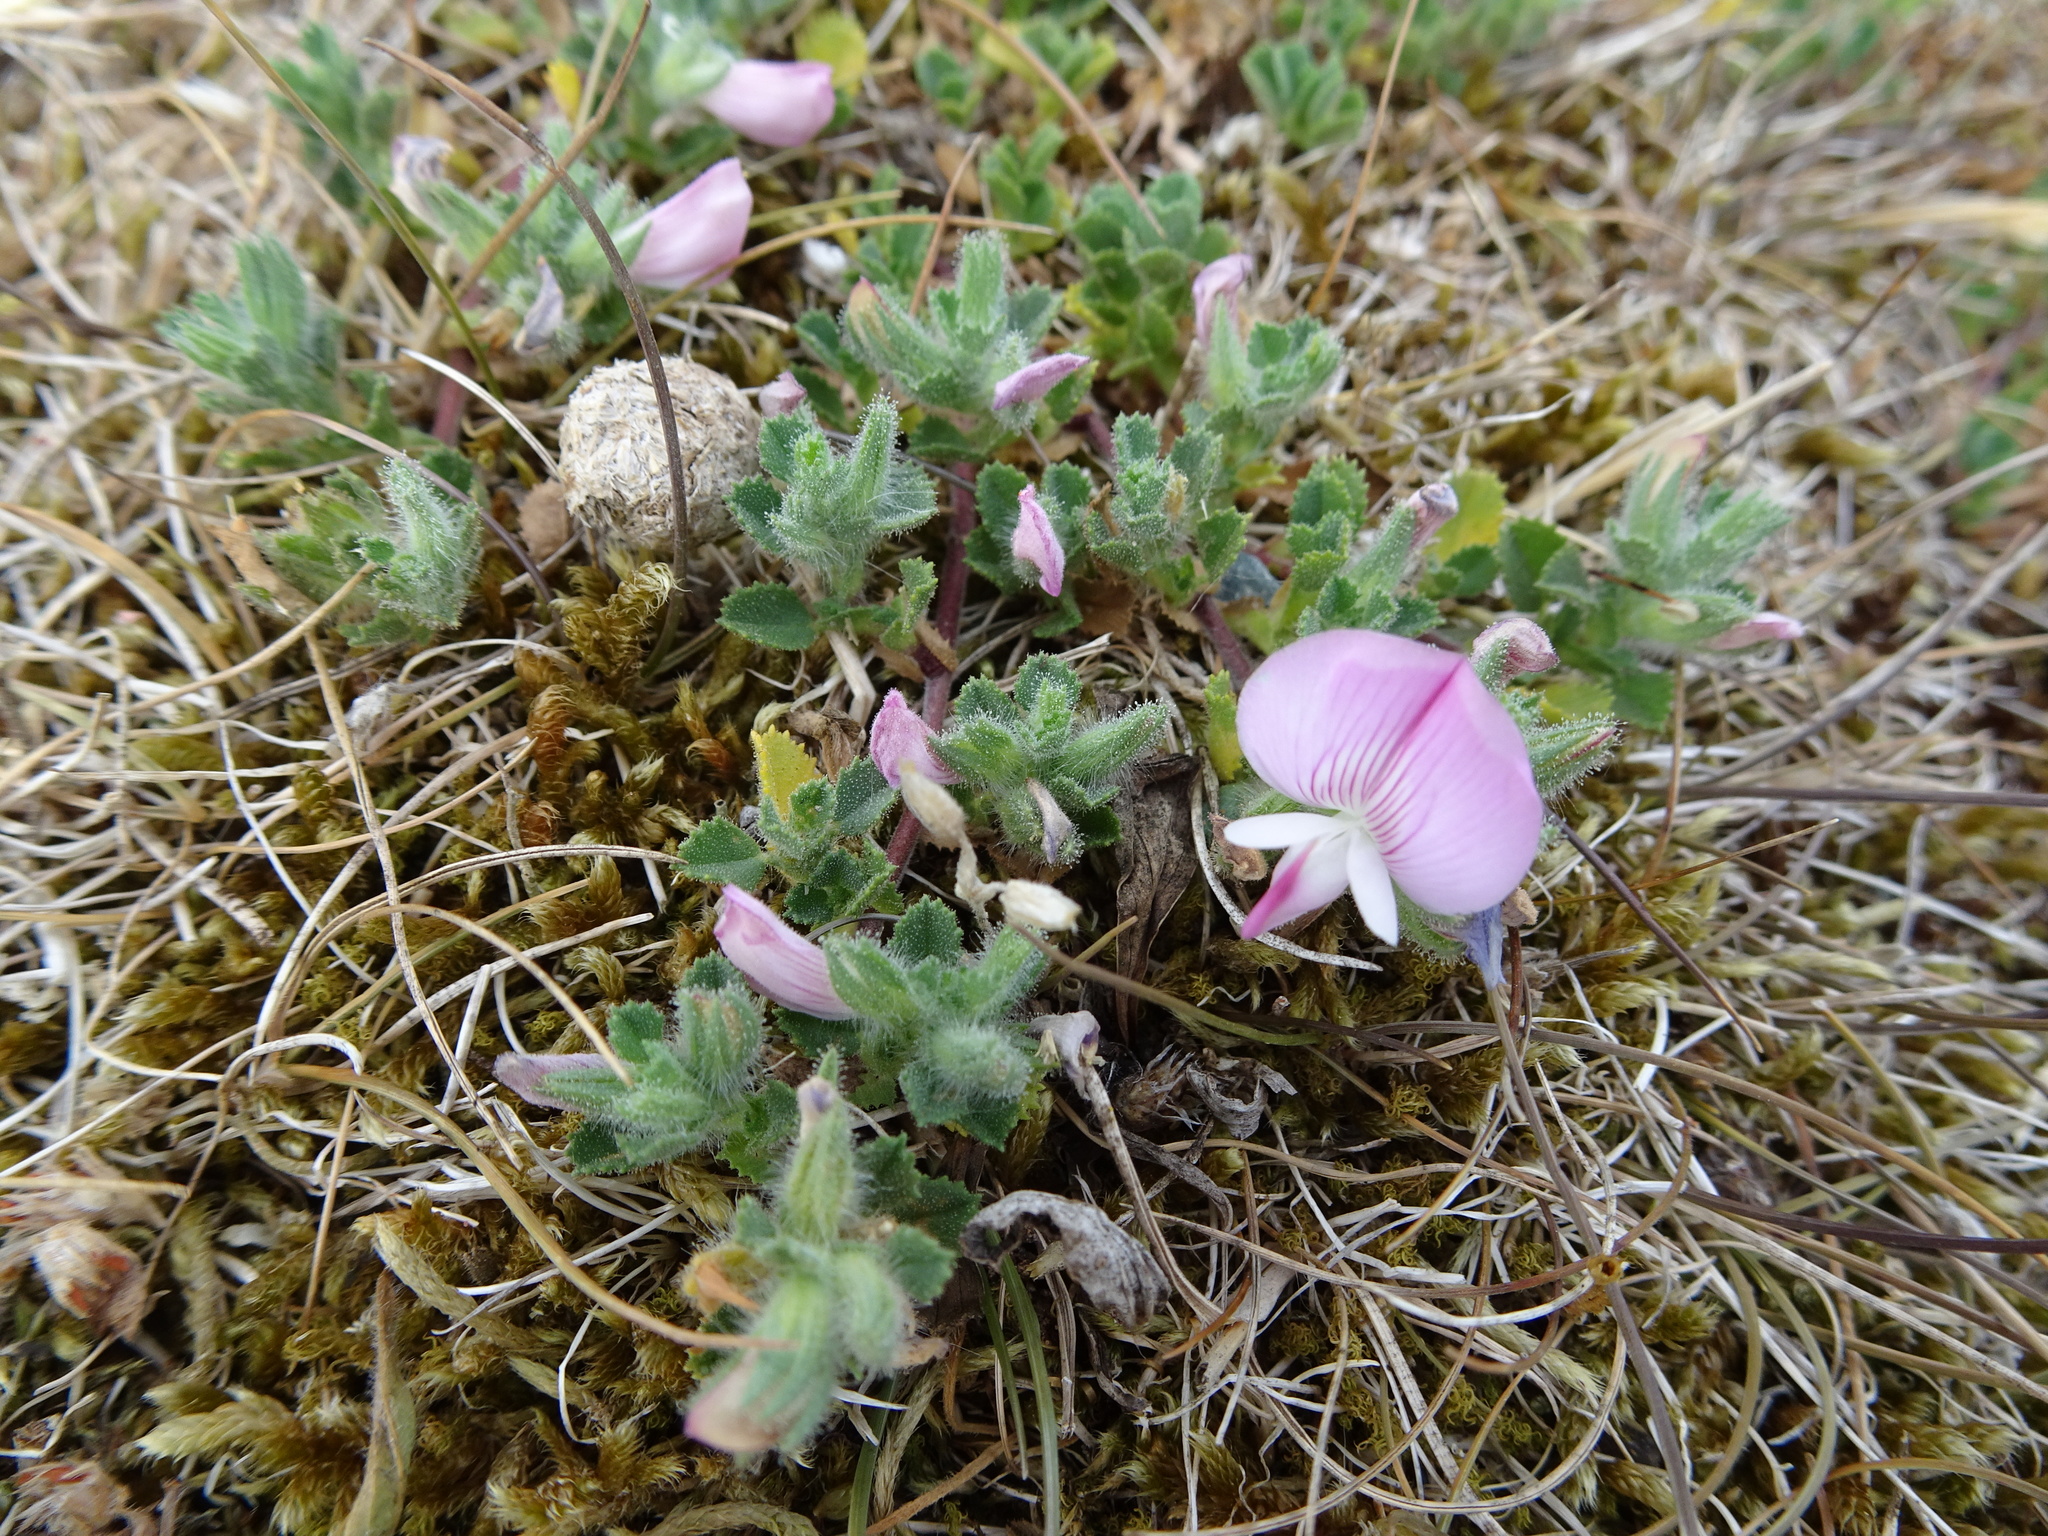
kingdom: Plantae
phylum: Tracheophyta
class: Magnoliopsida
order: Fabales
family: Fabaceae
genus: Ononis
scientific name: Ononis spinosa
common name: Spiny restharrow
